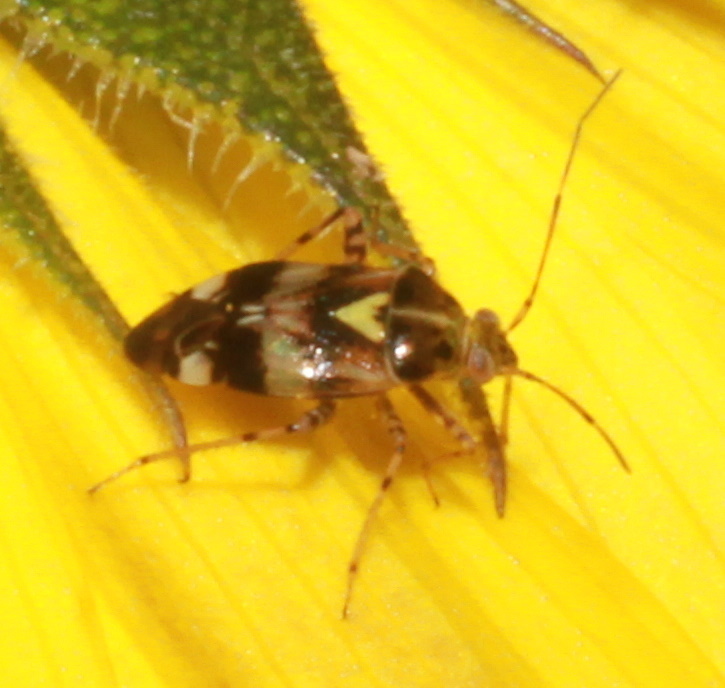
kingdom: Animalia
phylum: Arthropoda
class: Insecta
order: Hemiptera
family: Miridae
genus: Liocoris
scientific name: Liocoris tripustulatus
